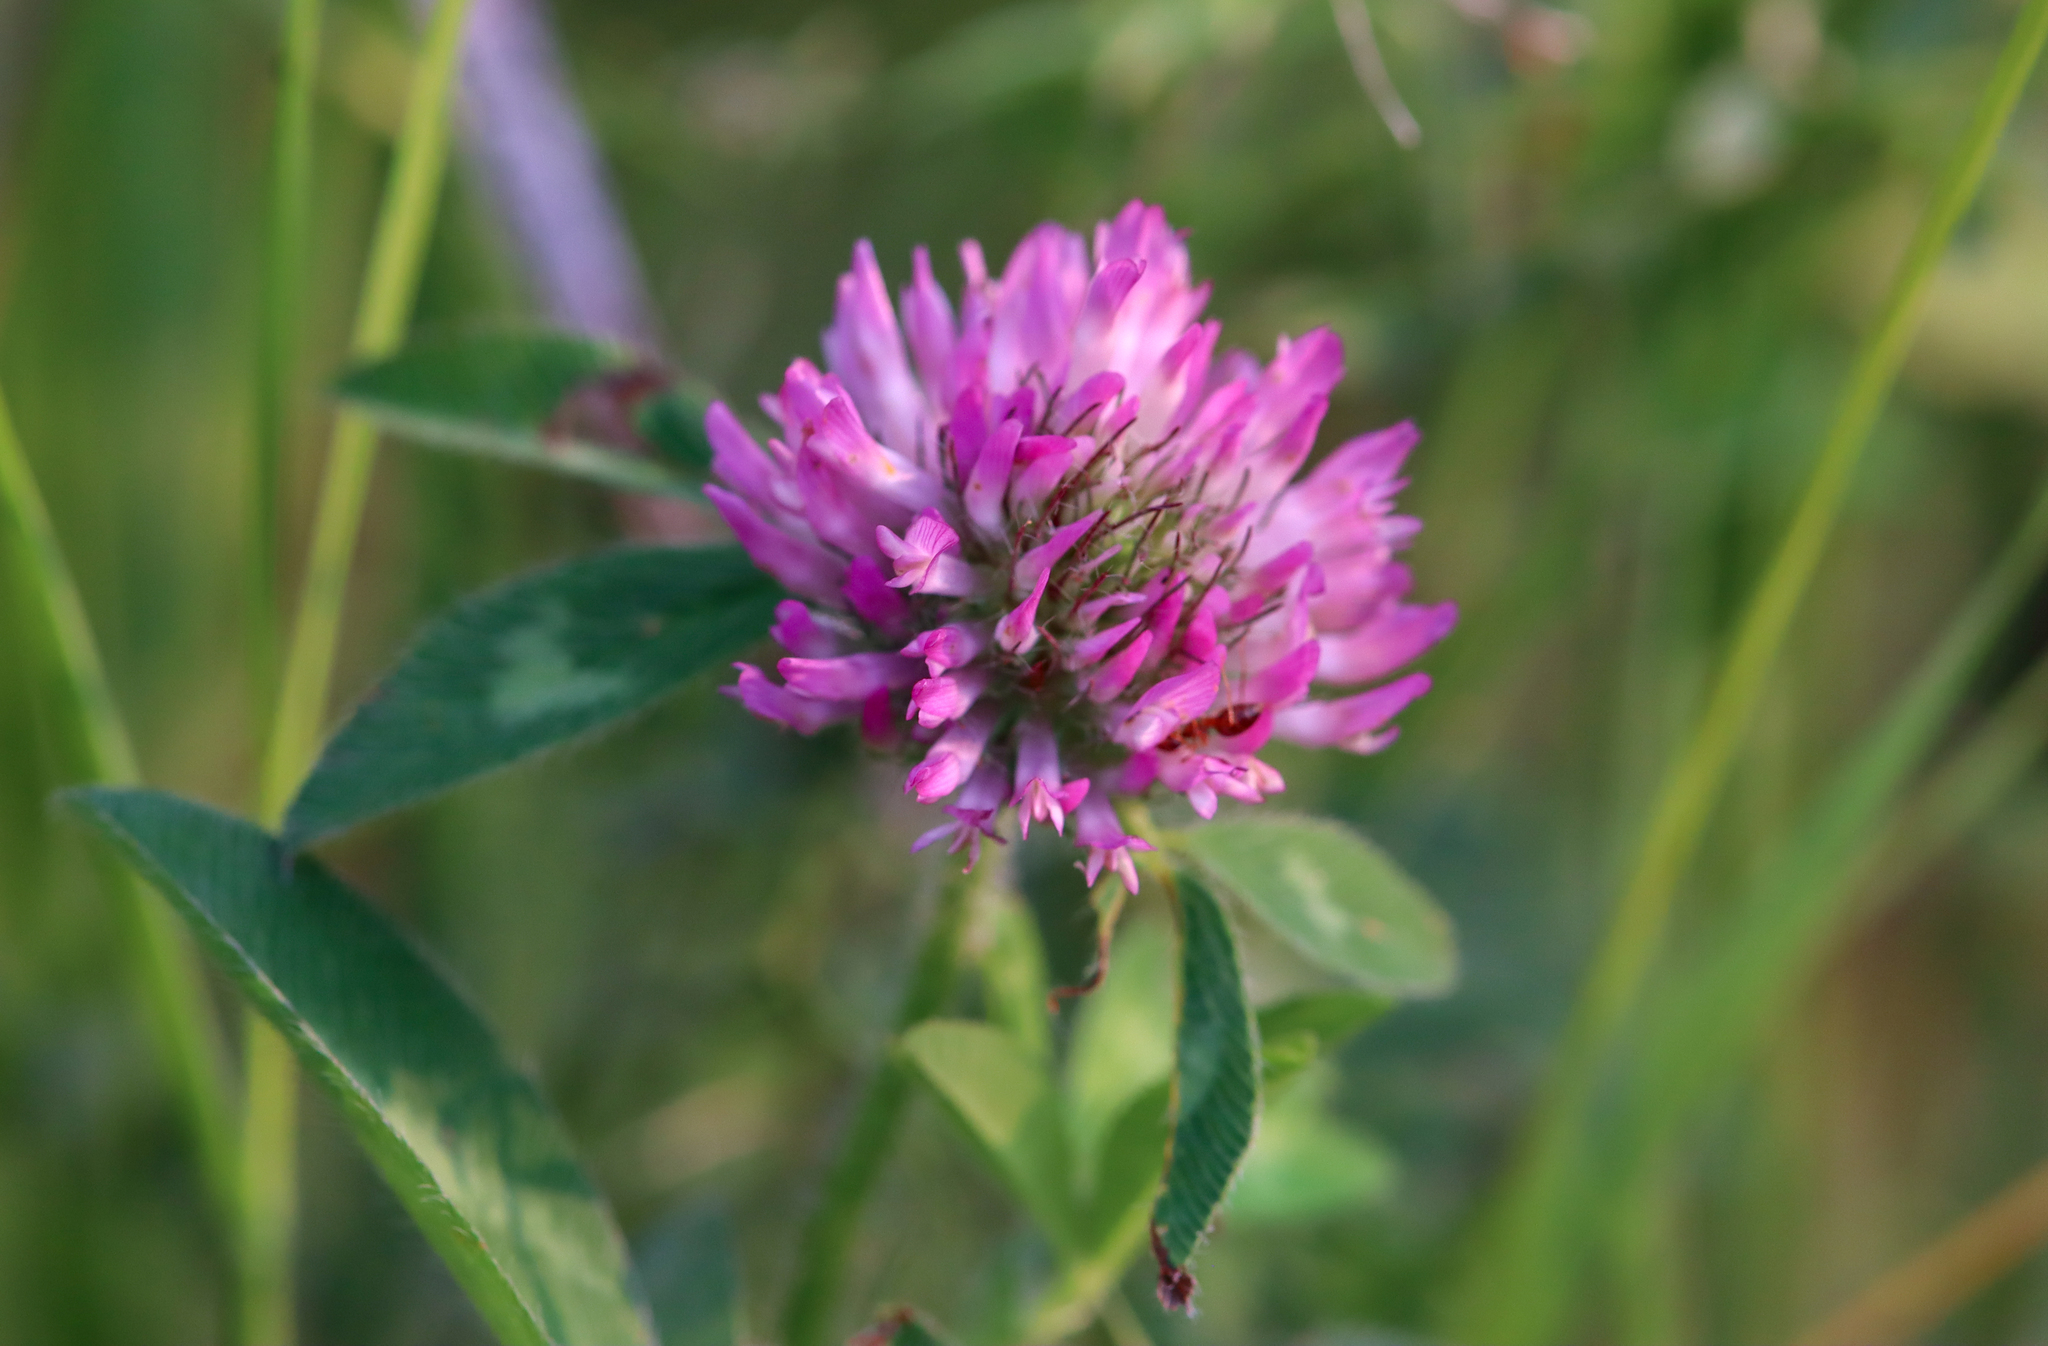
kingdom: Plantae
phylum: Tracheophyta
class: Magnoliopsida
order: Fabales
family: Fabaceae
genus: Trifolium
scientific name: Trifolium pratense
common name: Red clover
